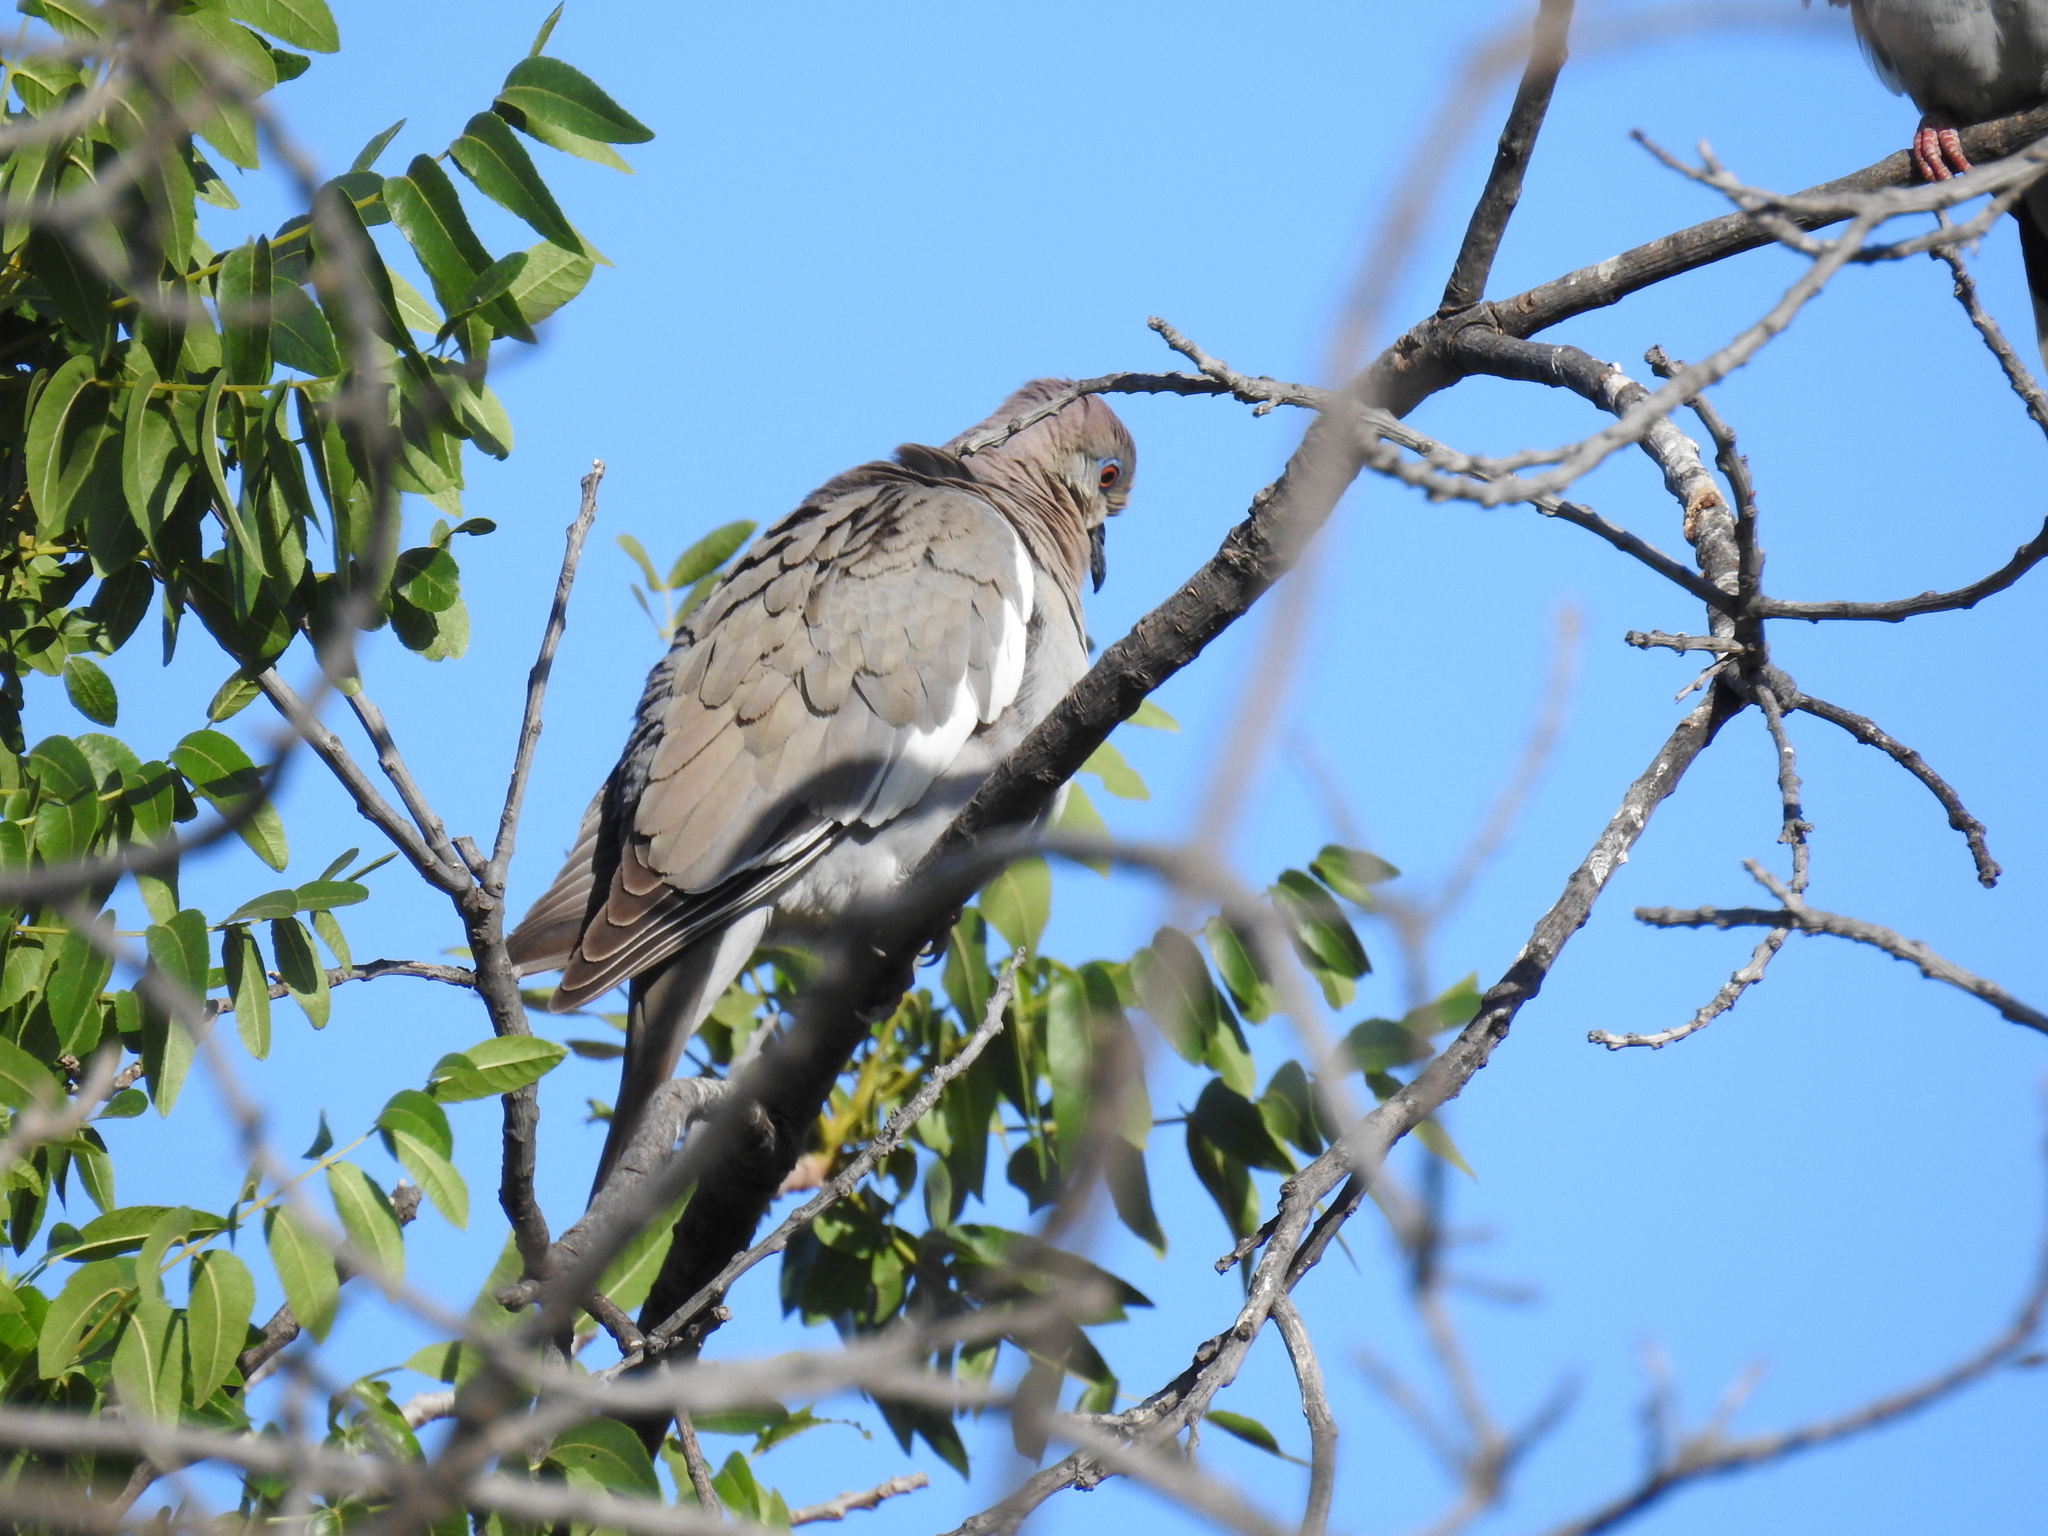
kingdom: Animalia
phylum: Chordata
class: Aves
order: Columbiformes
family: Columbidae
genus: Zenaida
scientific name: Zenaida asiatica
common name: White-winged dove
